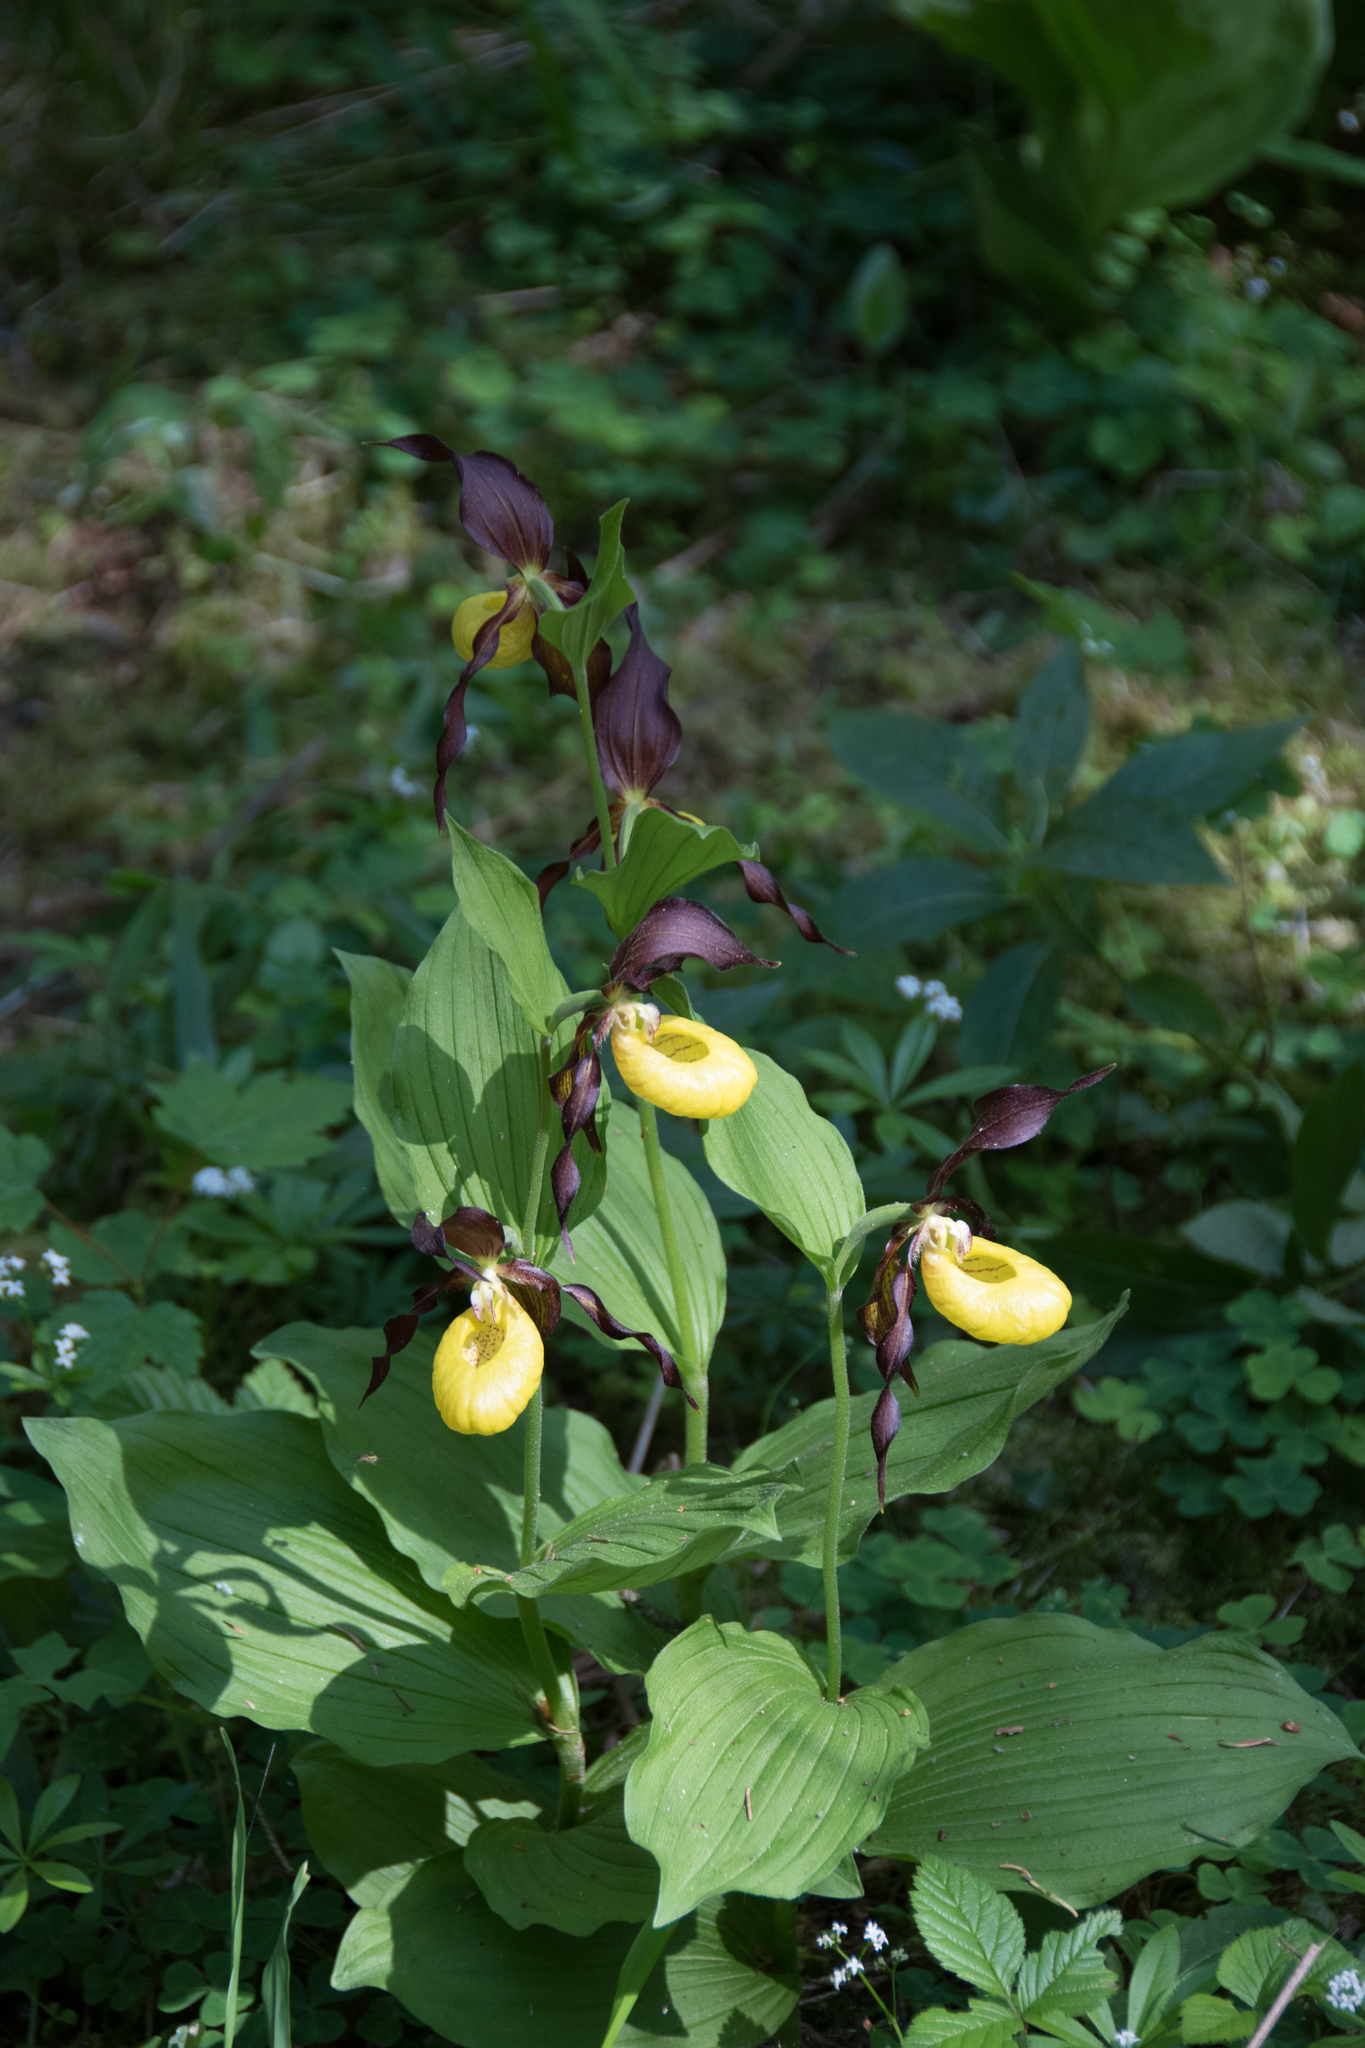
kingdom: Plantae
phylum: Tracheophyta
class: Liliopsida
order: Asparagales
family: Orchidaceae
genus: Cypripedium
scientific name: Cypripedium calceolus
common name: Lady's-slipper
